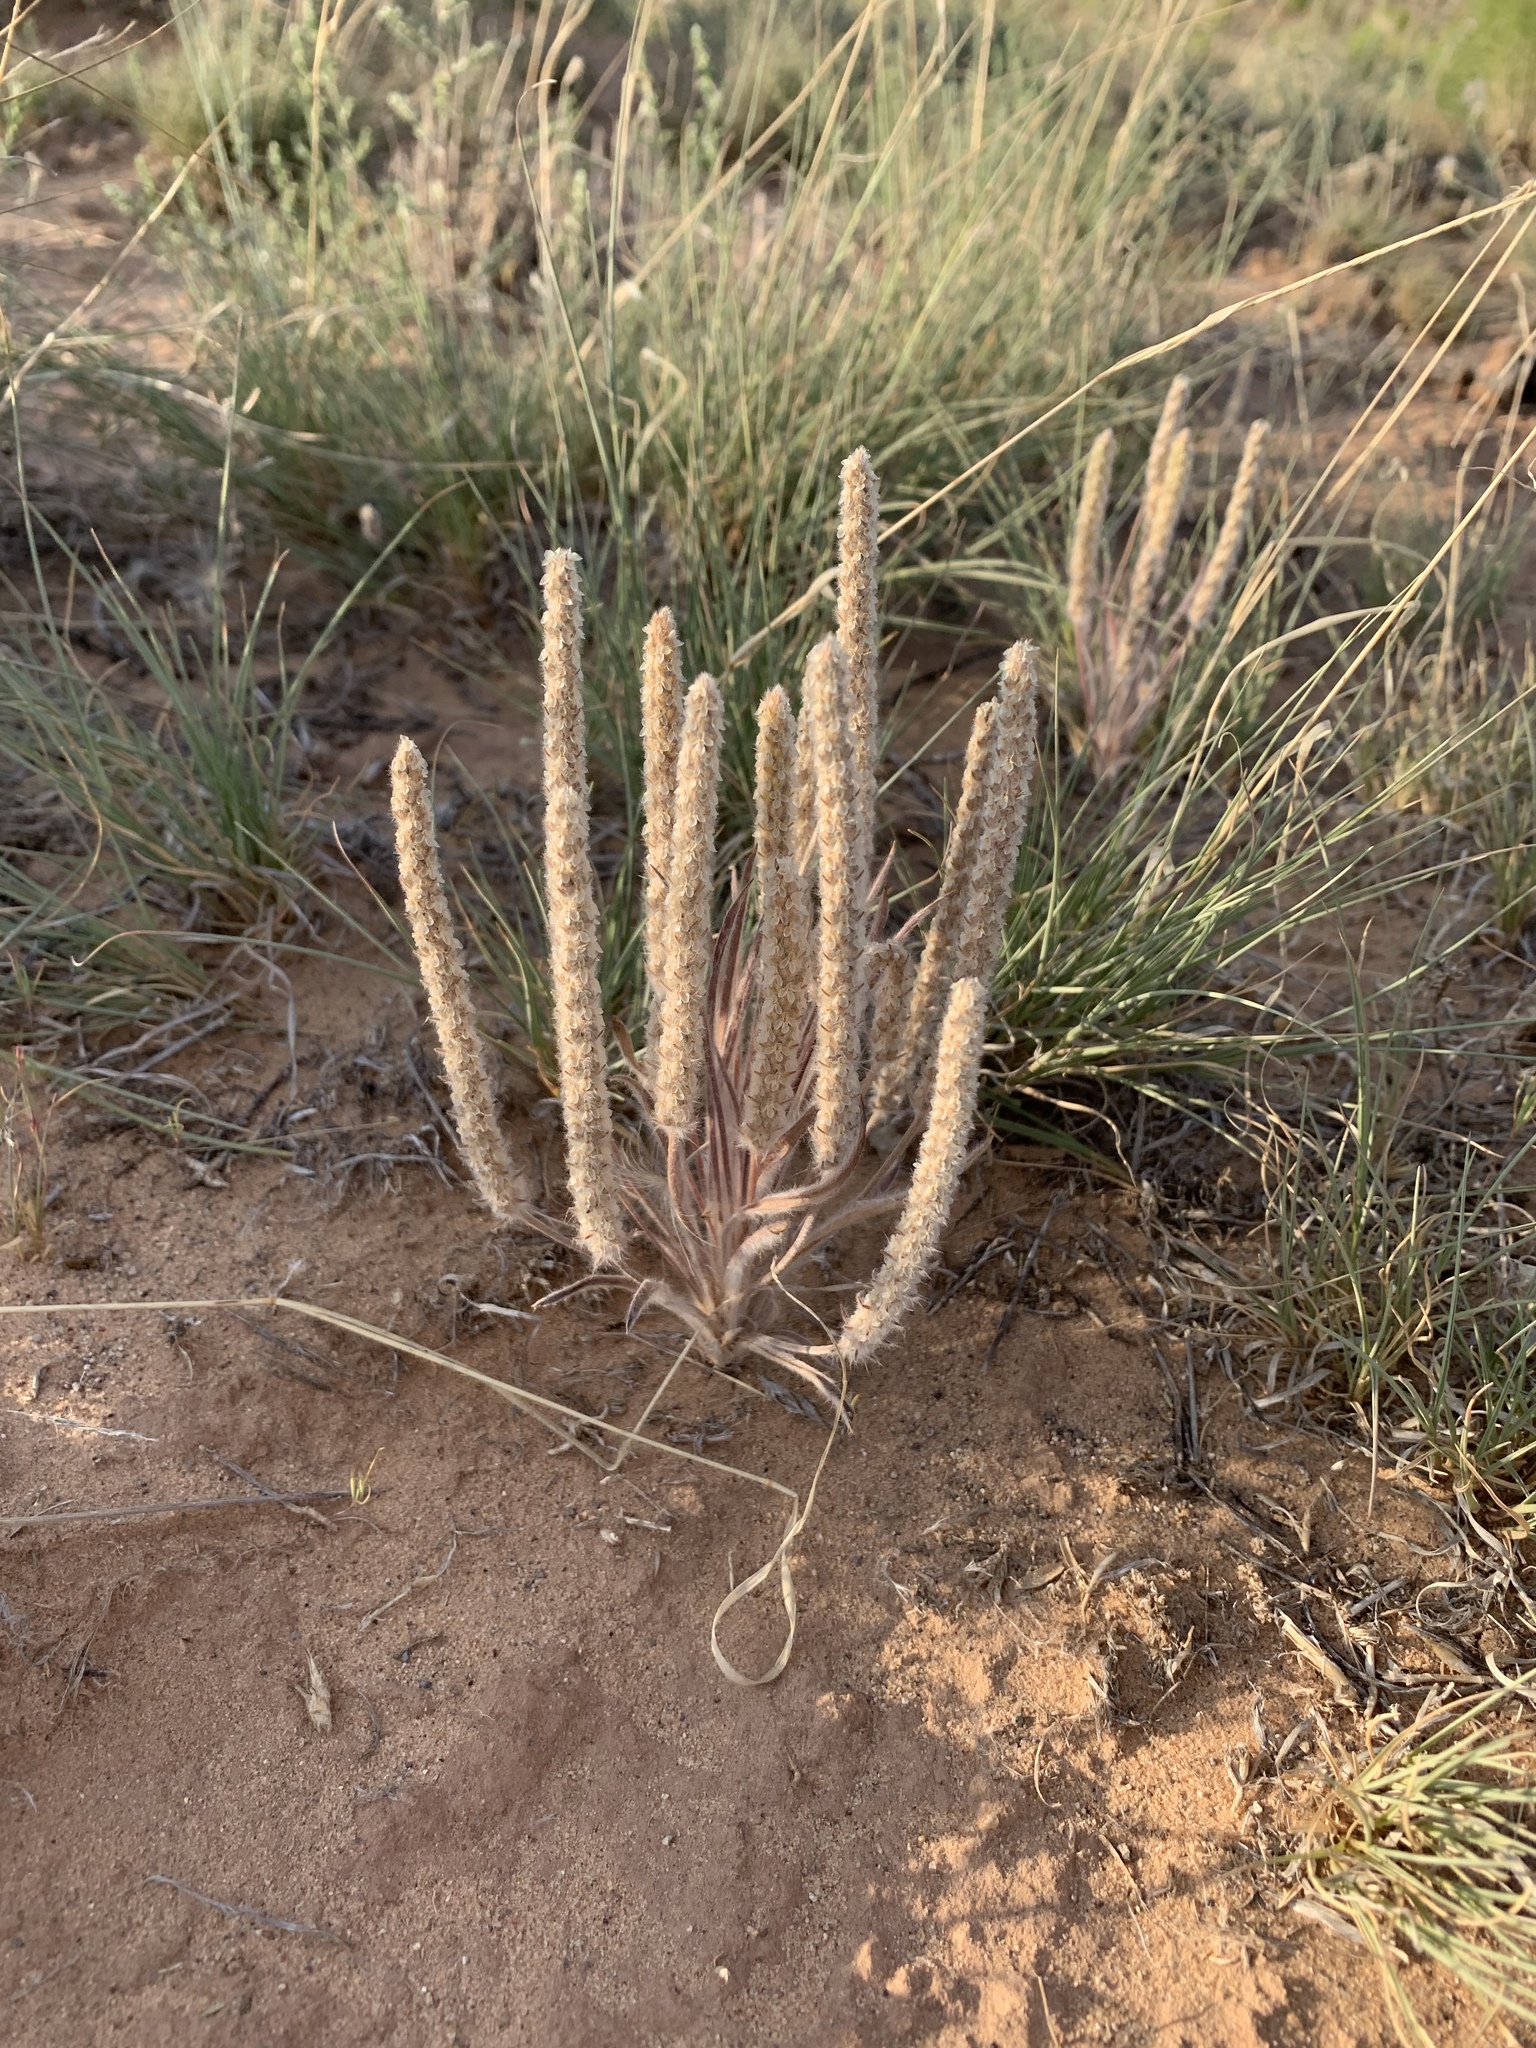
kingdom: Plantae
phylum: Tracheophyta
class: Magnoliopsida
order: Lamiales
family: Plantaginaceae
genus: Plantago
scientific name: Plantago patagonica
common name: Patagonia indian-wheat
